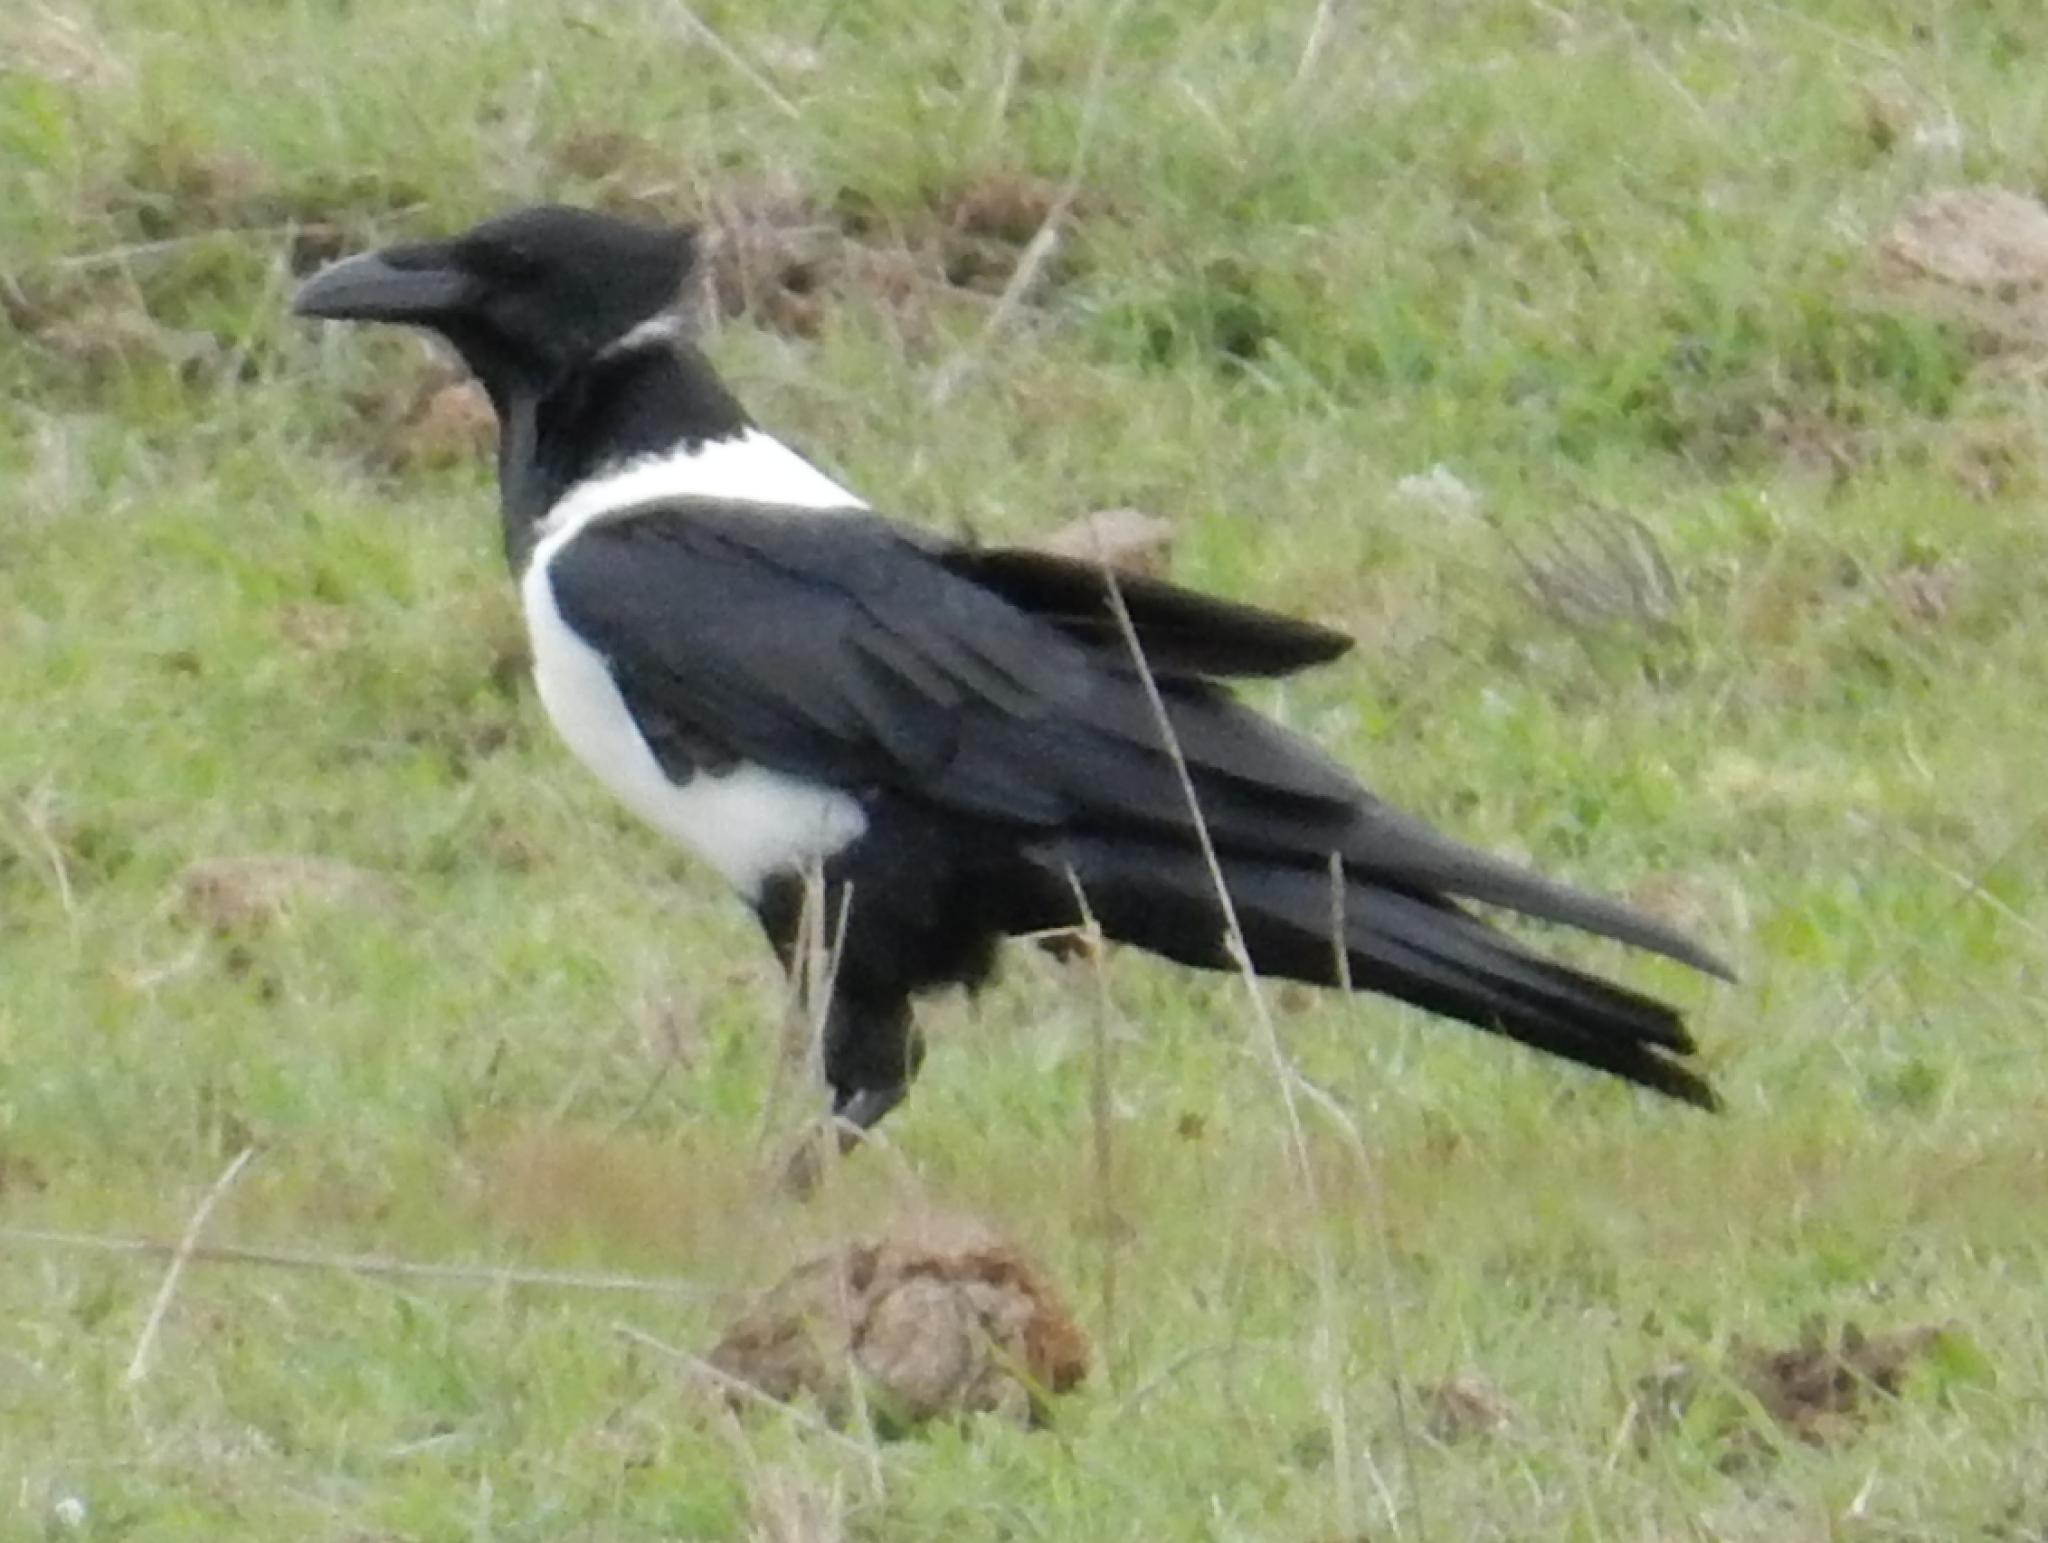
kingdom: Animalia
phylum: Chordata
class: Aves
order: Passeriformes
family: Corvidae
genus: Corvus
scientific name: Corvus albus
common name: Pied crow
